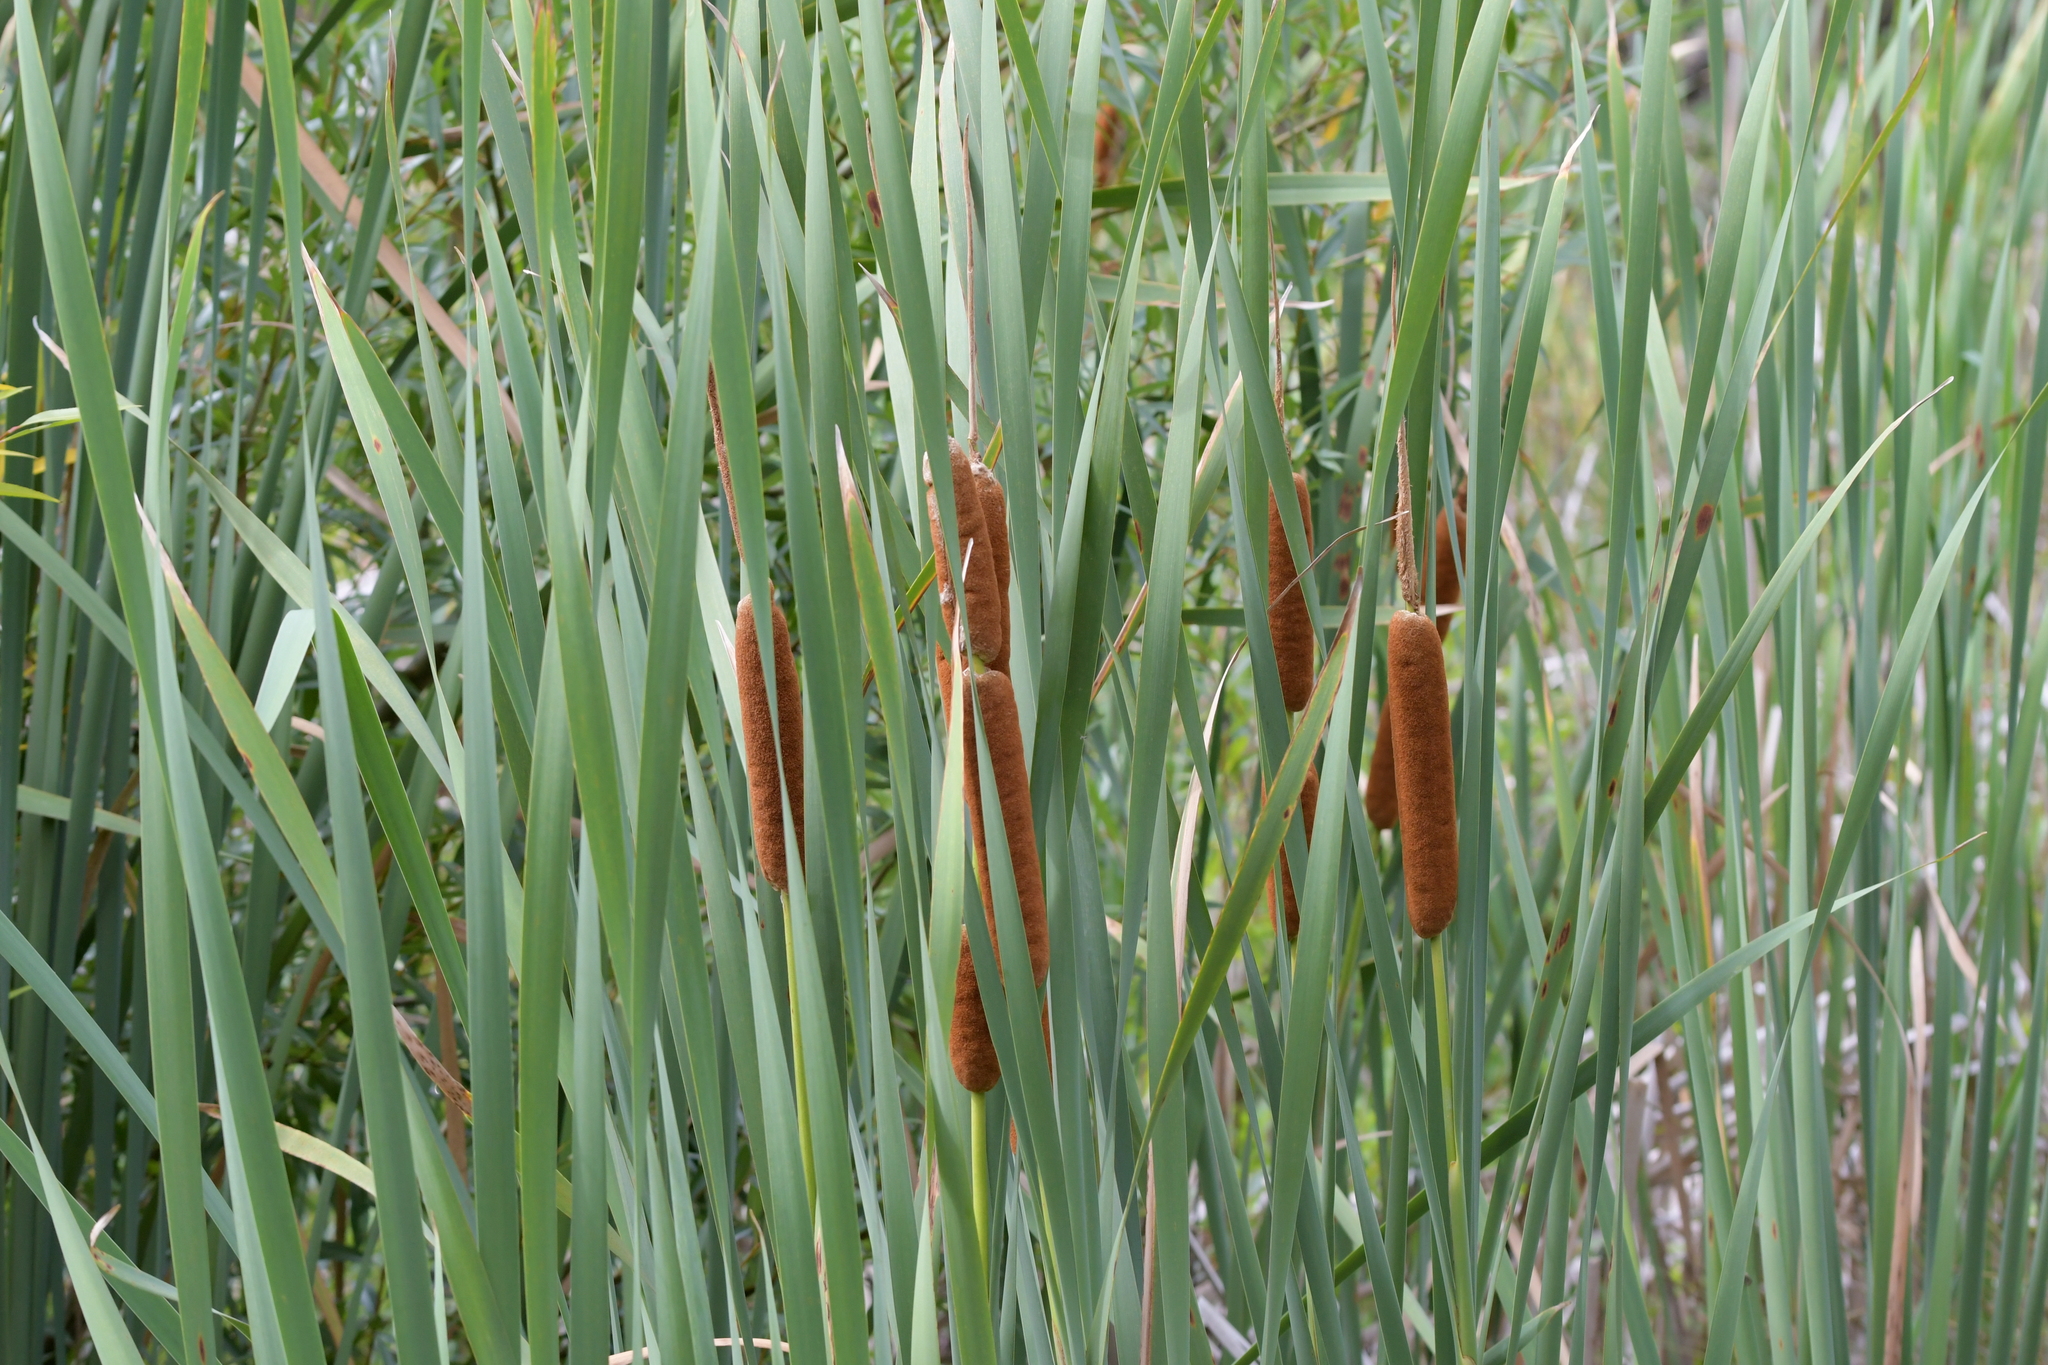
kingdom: Plantae
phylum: Tracheophyta
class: Liliopsida
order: Poales
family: Typhaceae
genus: Typha
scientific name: Typha orientalis
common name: Bullrush
